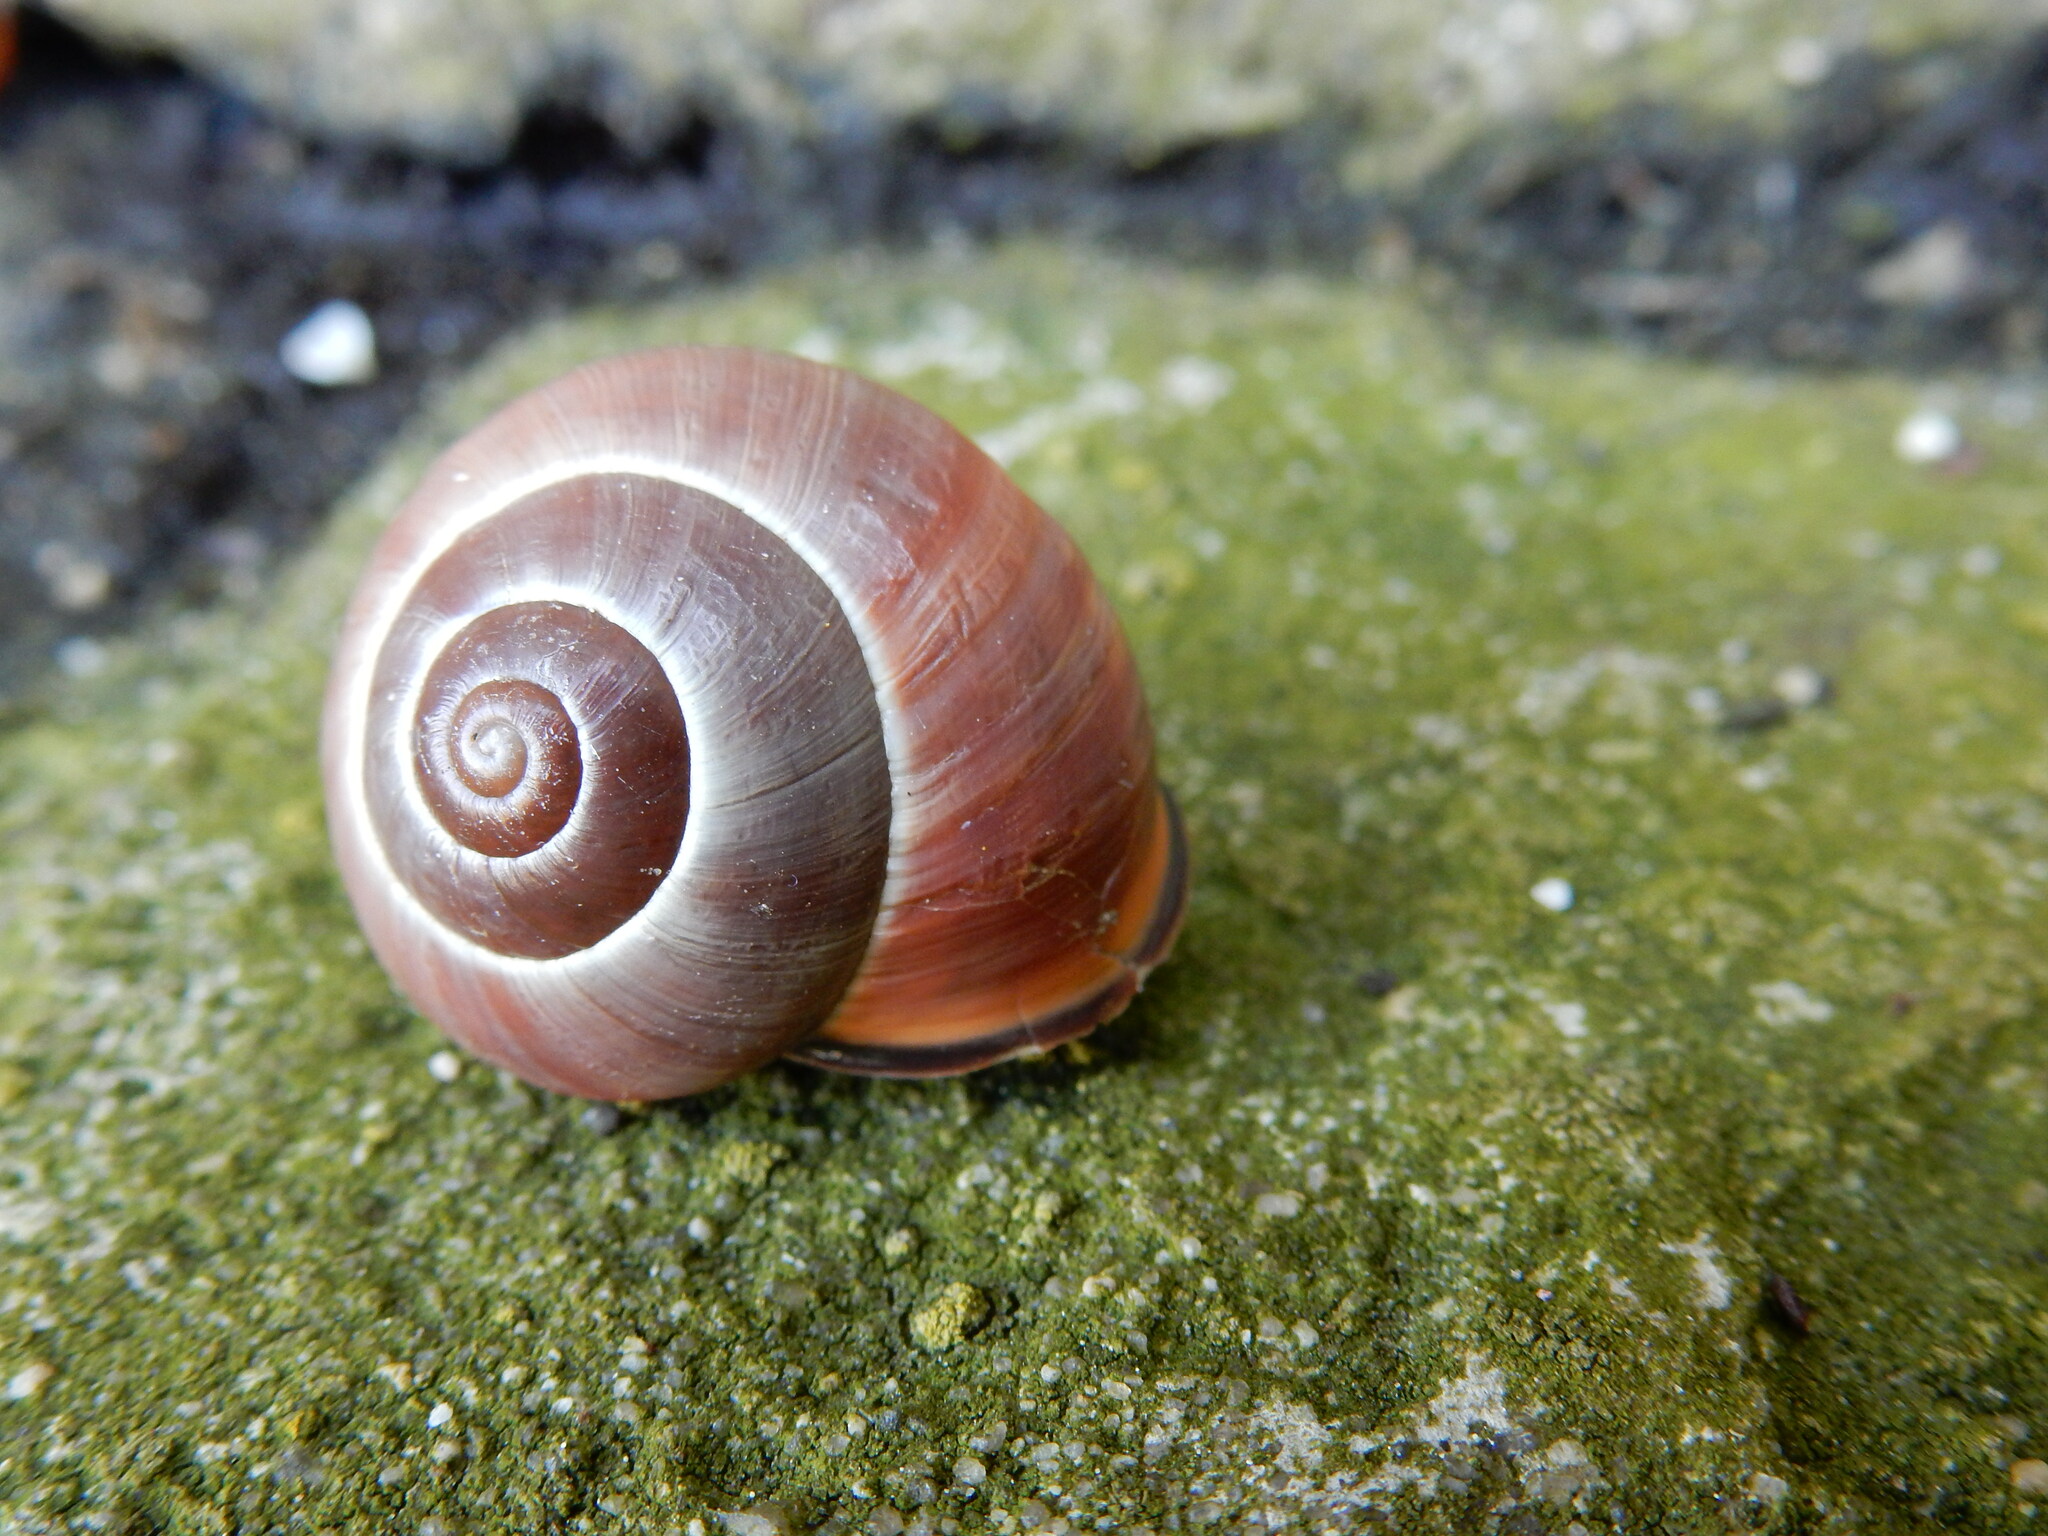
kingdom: Animalia
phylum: Mollusca
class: Gastropoda
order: Stylommatophora
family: Helicidae
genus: Cepaea
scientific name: Cepaea nemoralis
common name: Grovesnail
